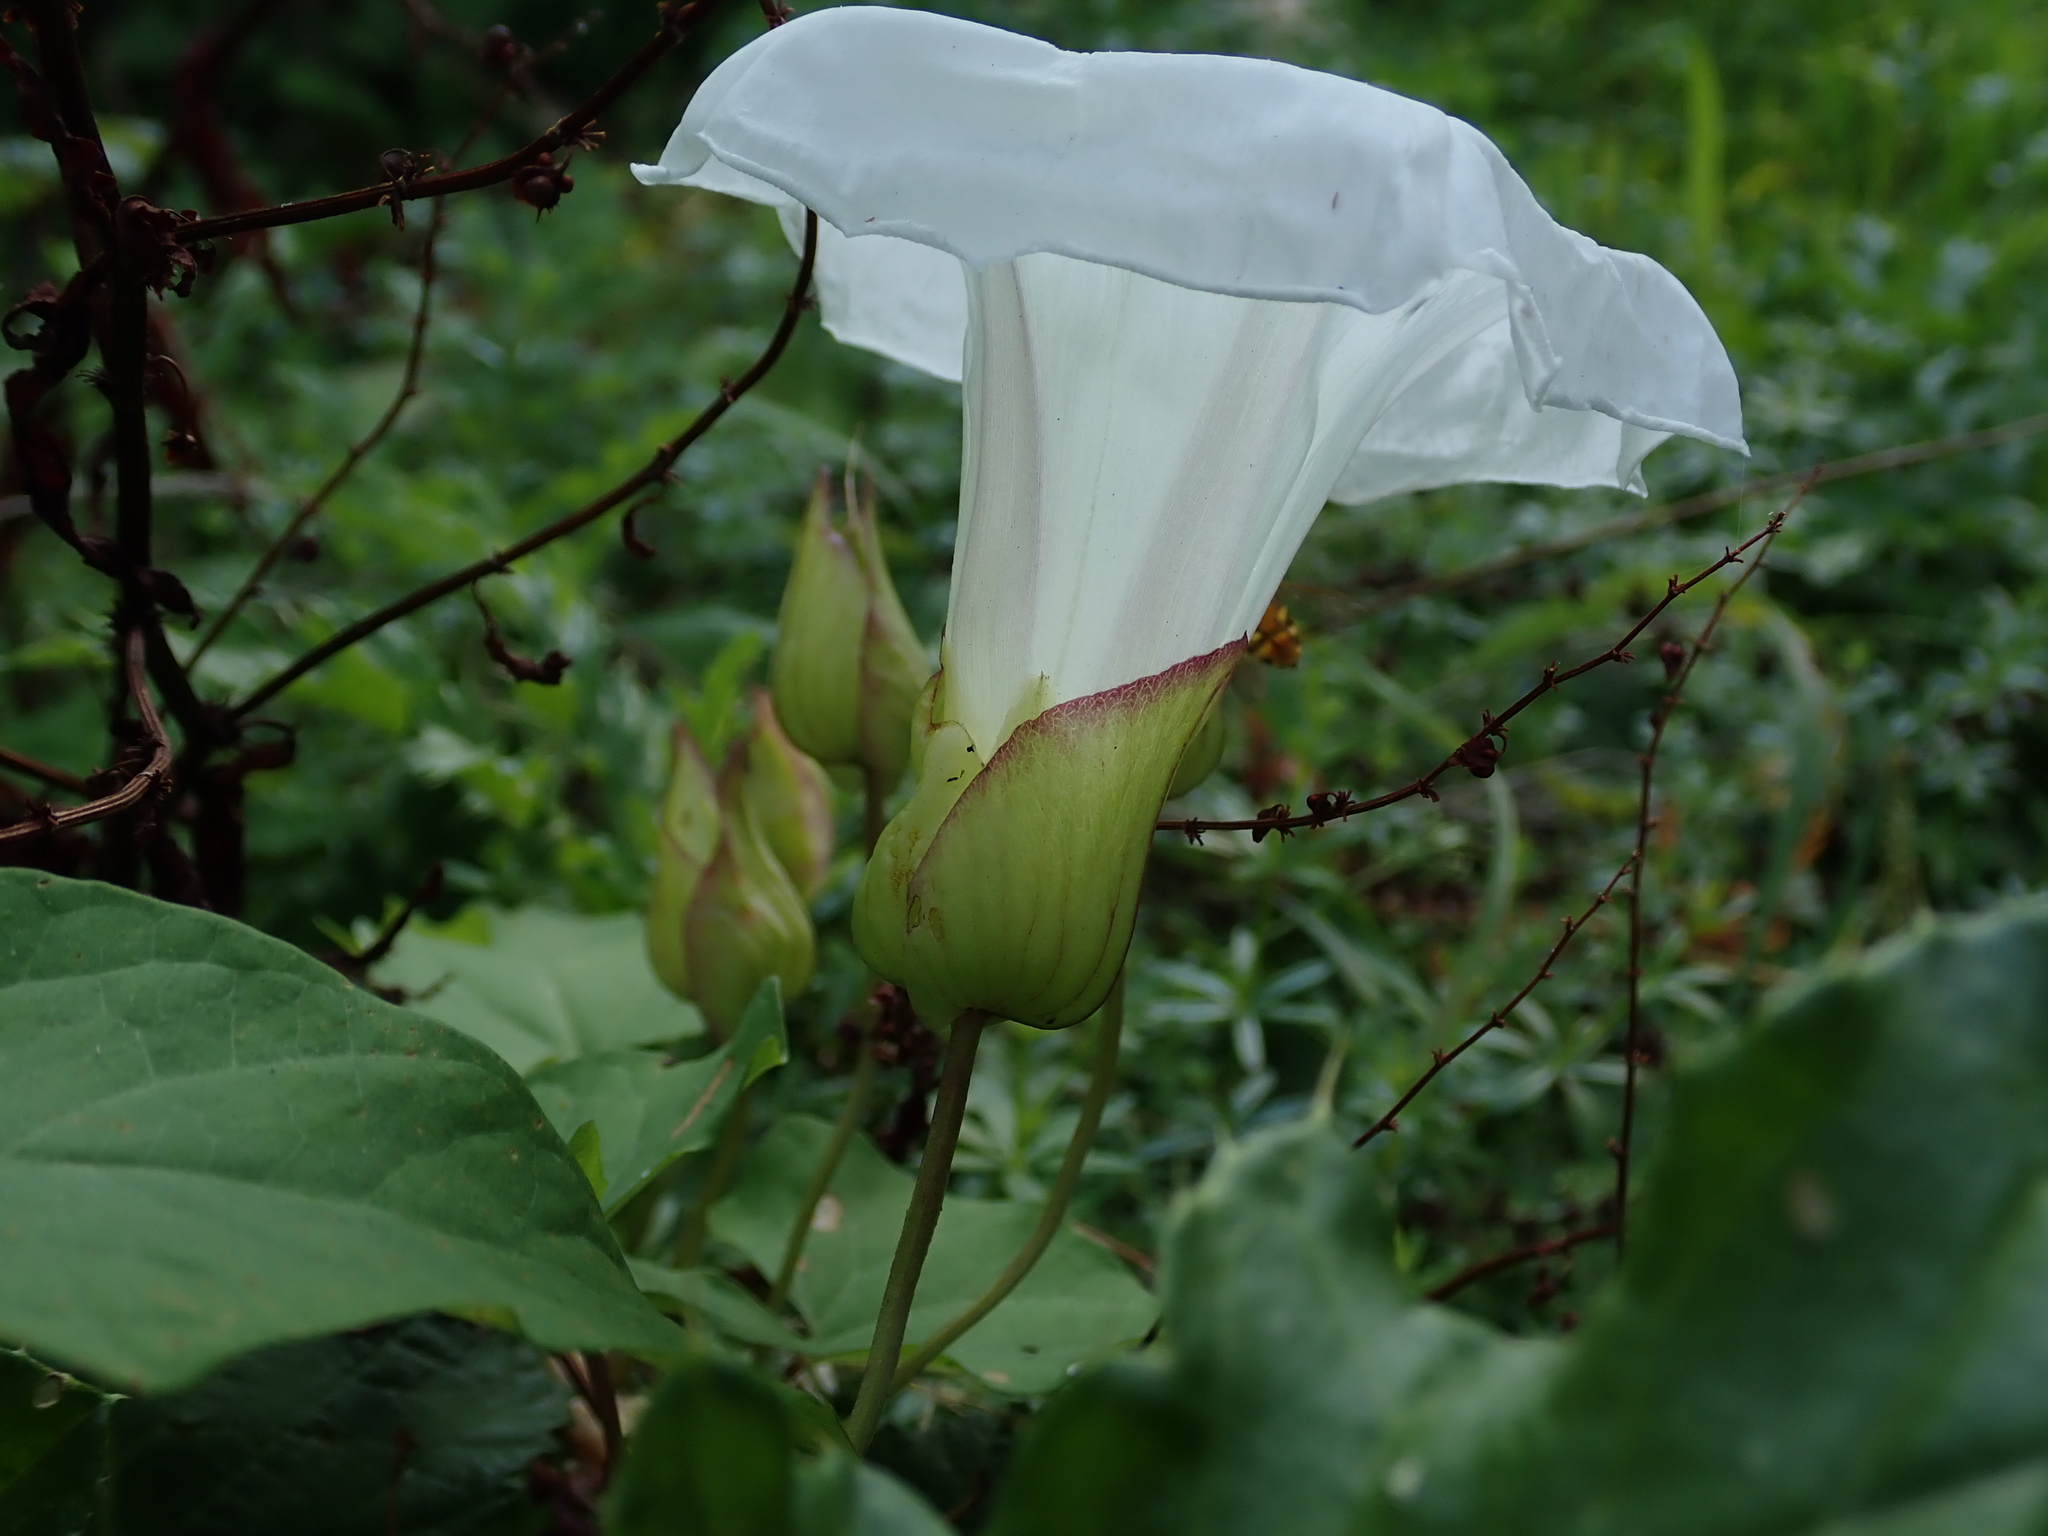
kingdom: Plantae
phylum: Tracheophyta
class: Magnoliopsida
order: Solanales
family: Convolvulaceae
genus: Calystegia
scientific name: Calystegia silvatica
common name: Large bindweed
